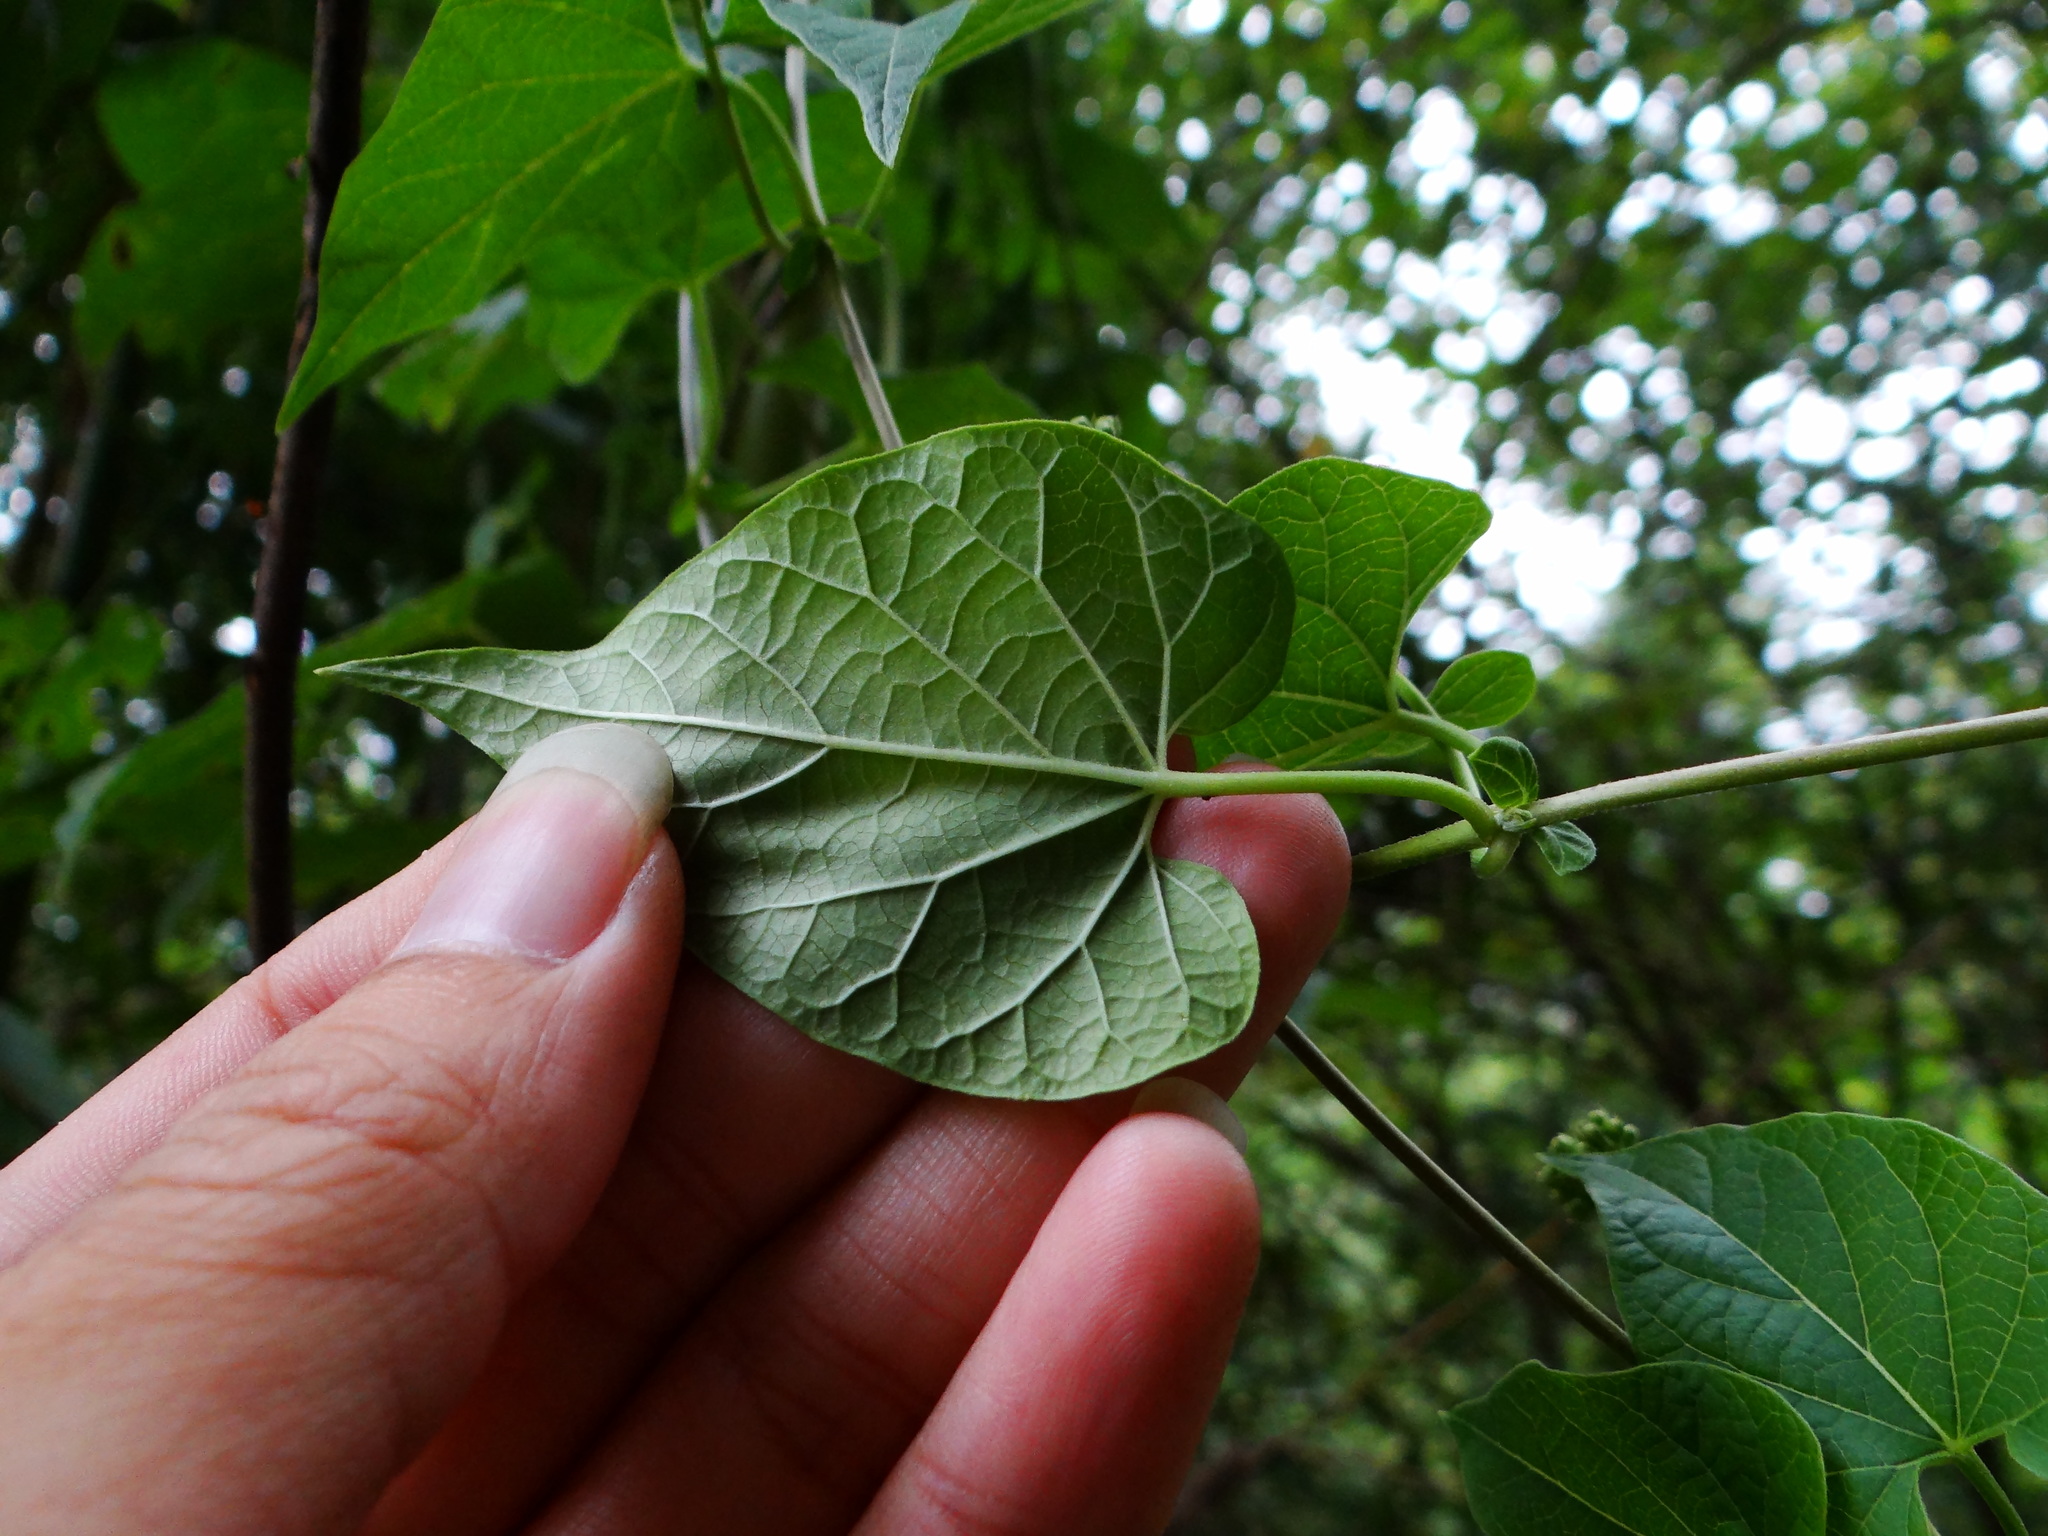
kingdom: Plantae
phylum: Tracheophyta
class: Magnoliopsida
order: Gentianales
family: Apocynaceae
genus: Cynanchum
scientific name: Cynanchum boudieri
